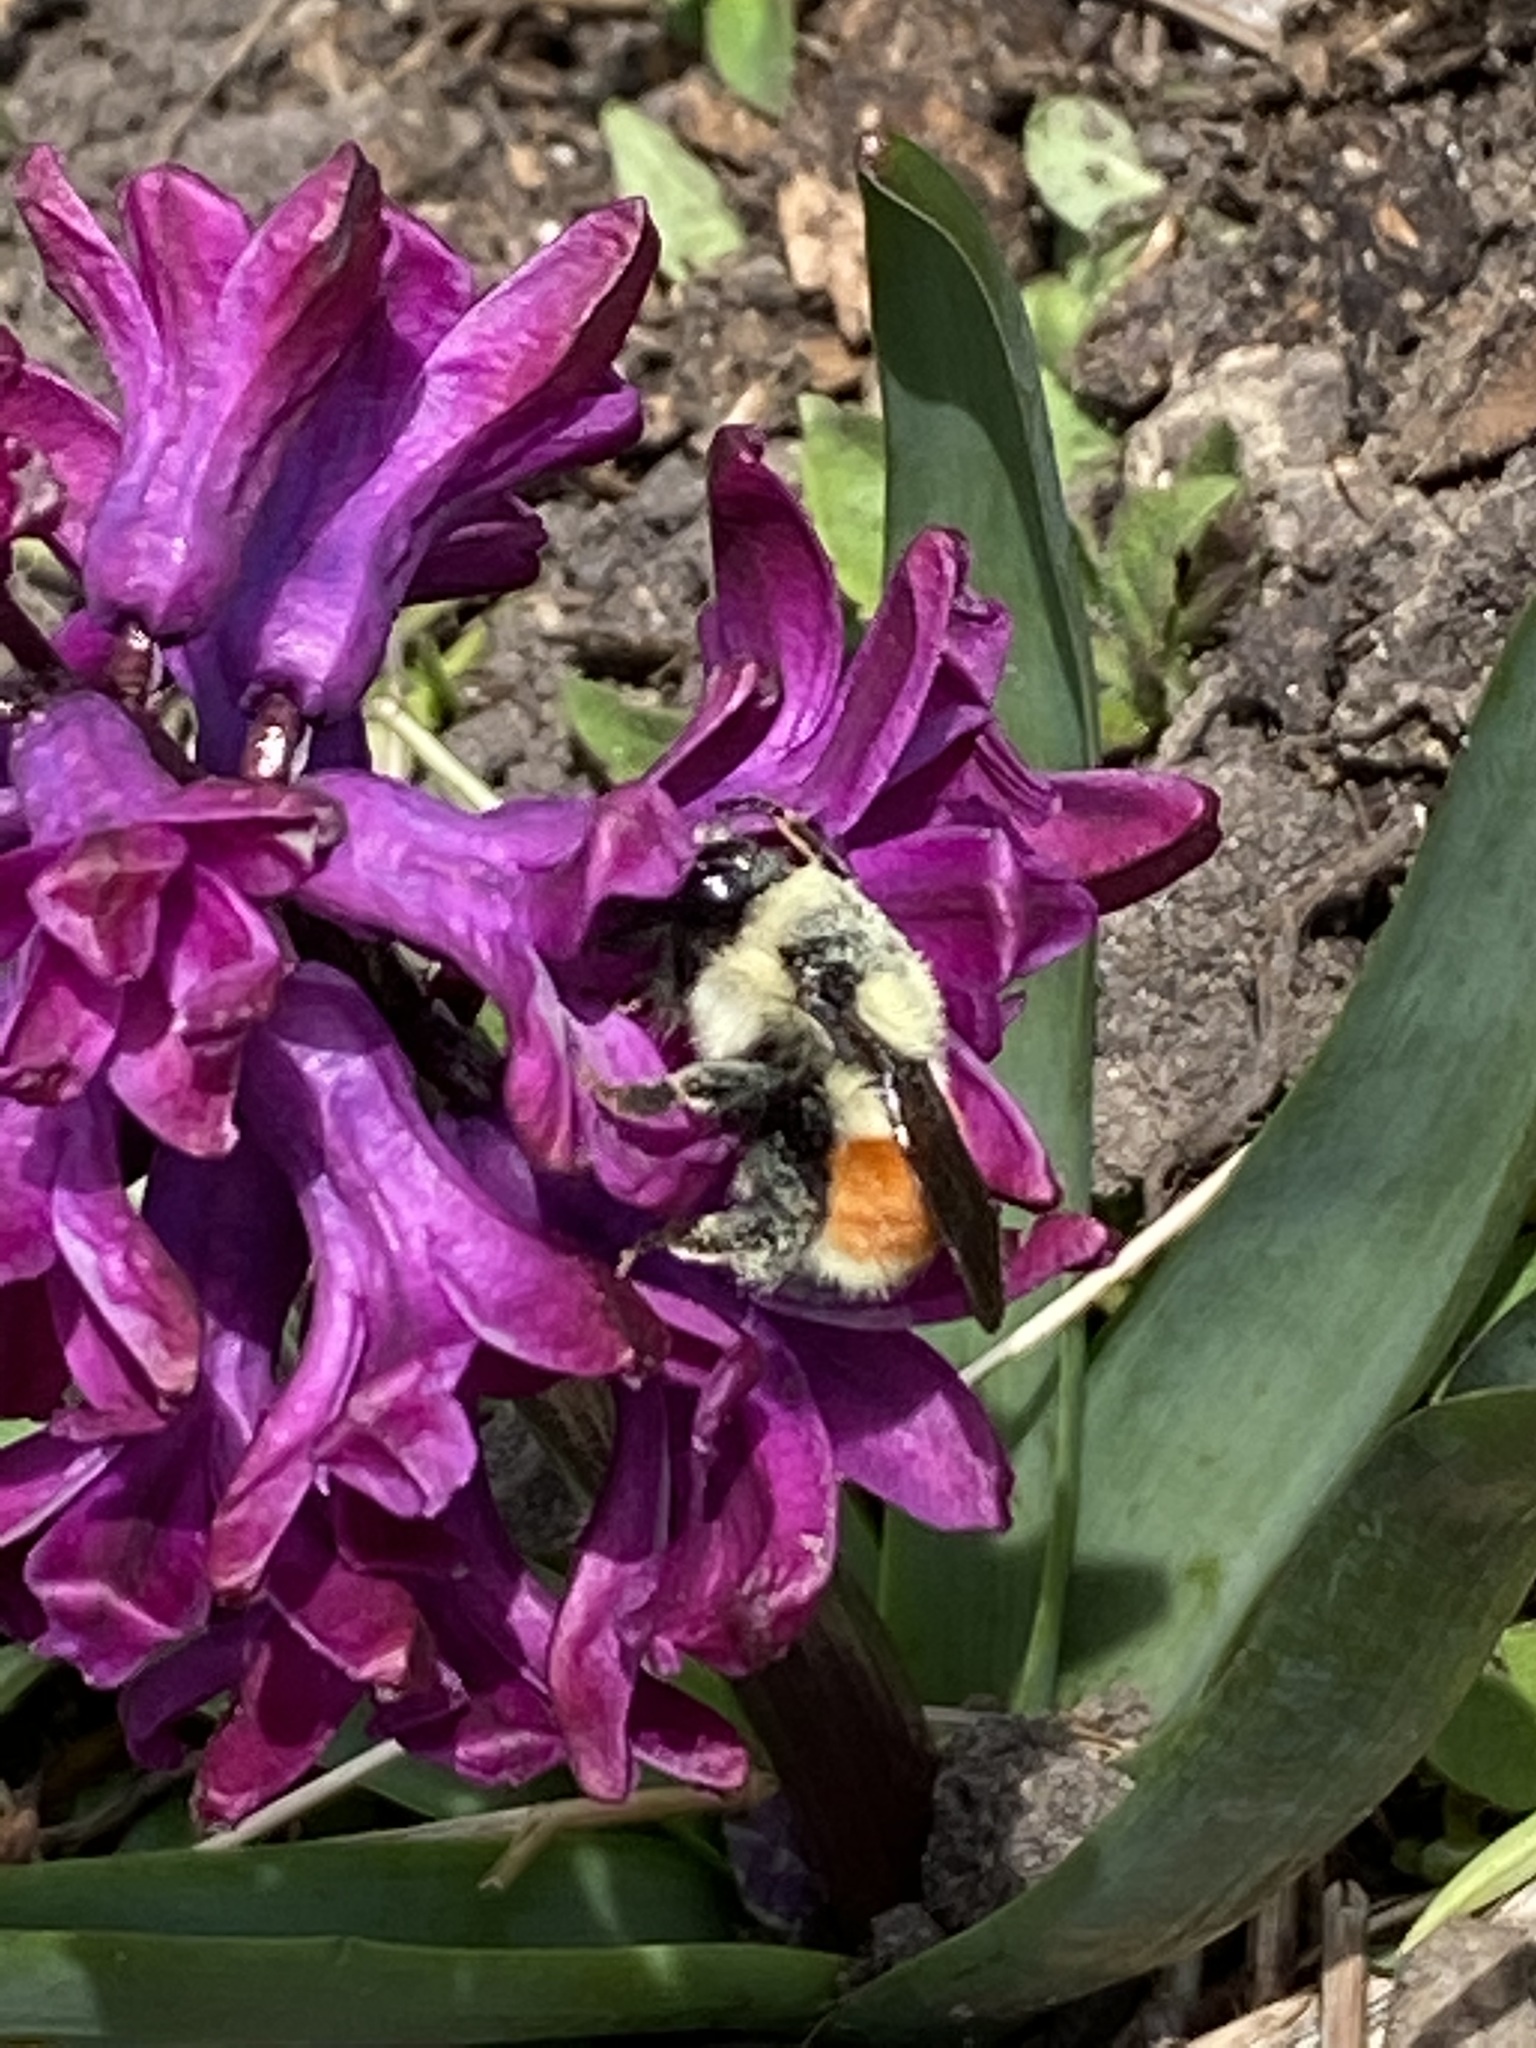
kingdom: Animalia
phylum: Arthropoda
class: Insecta
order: Hymenoptera
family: Apidae
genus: Bombus
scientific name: Bombus ternarius
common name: Tri-colored bumble bee
